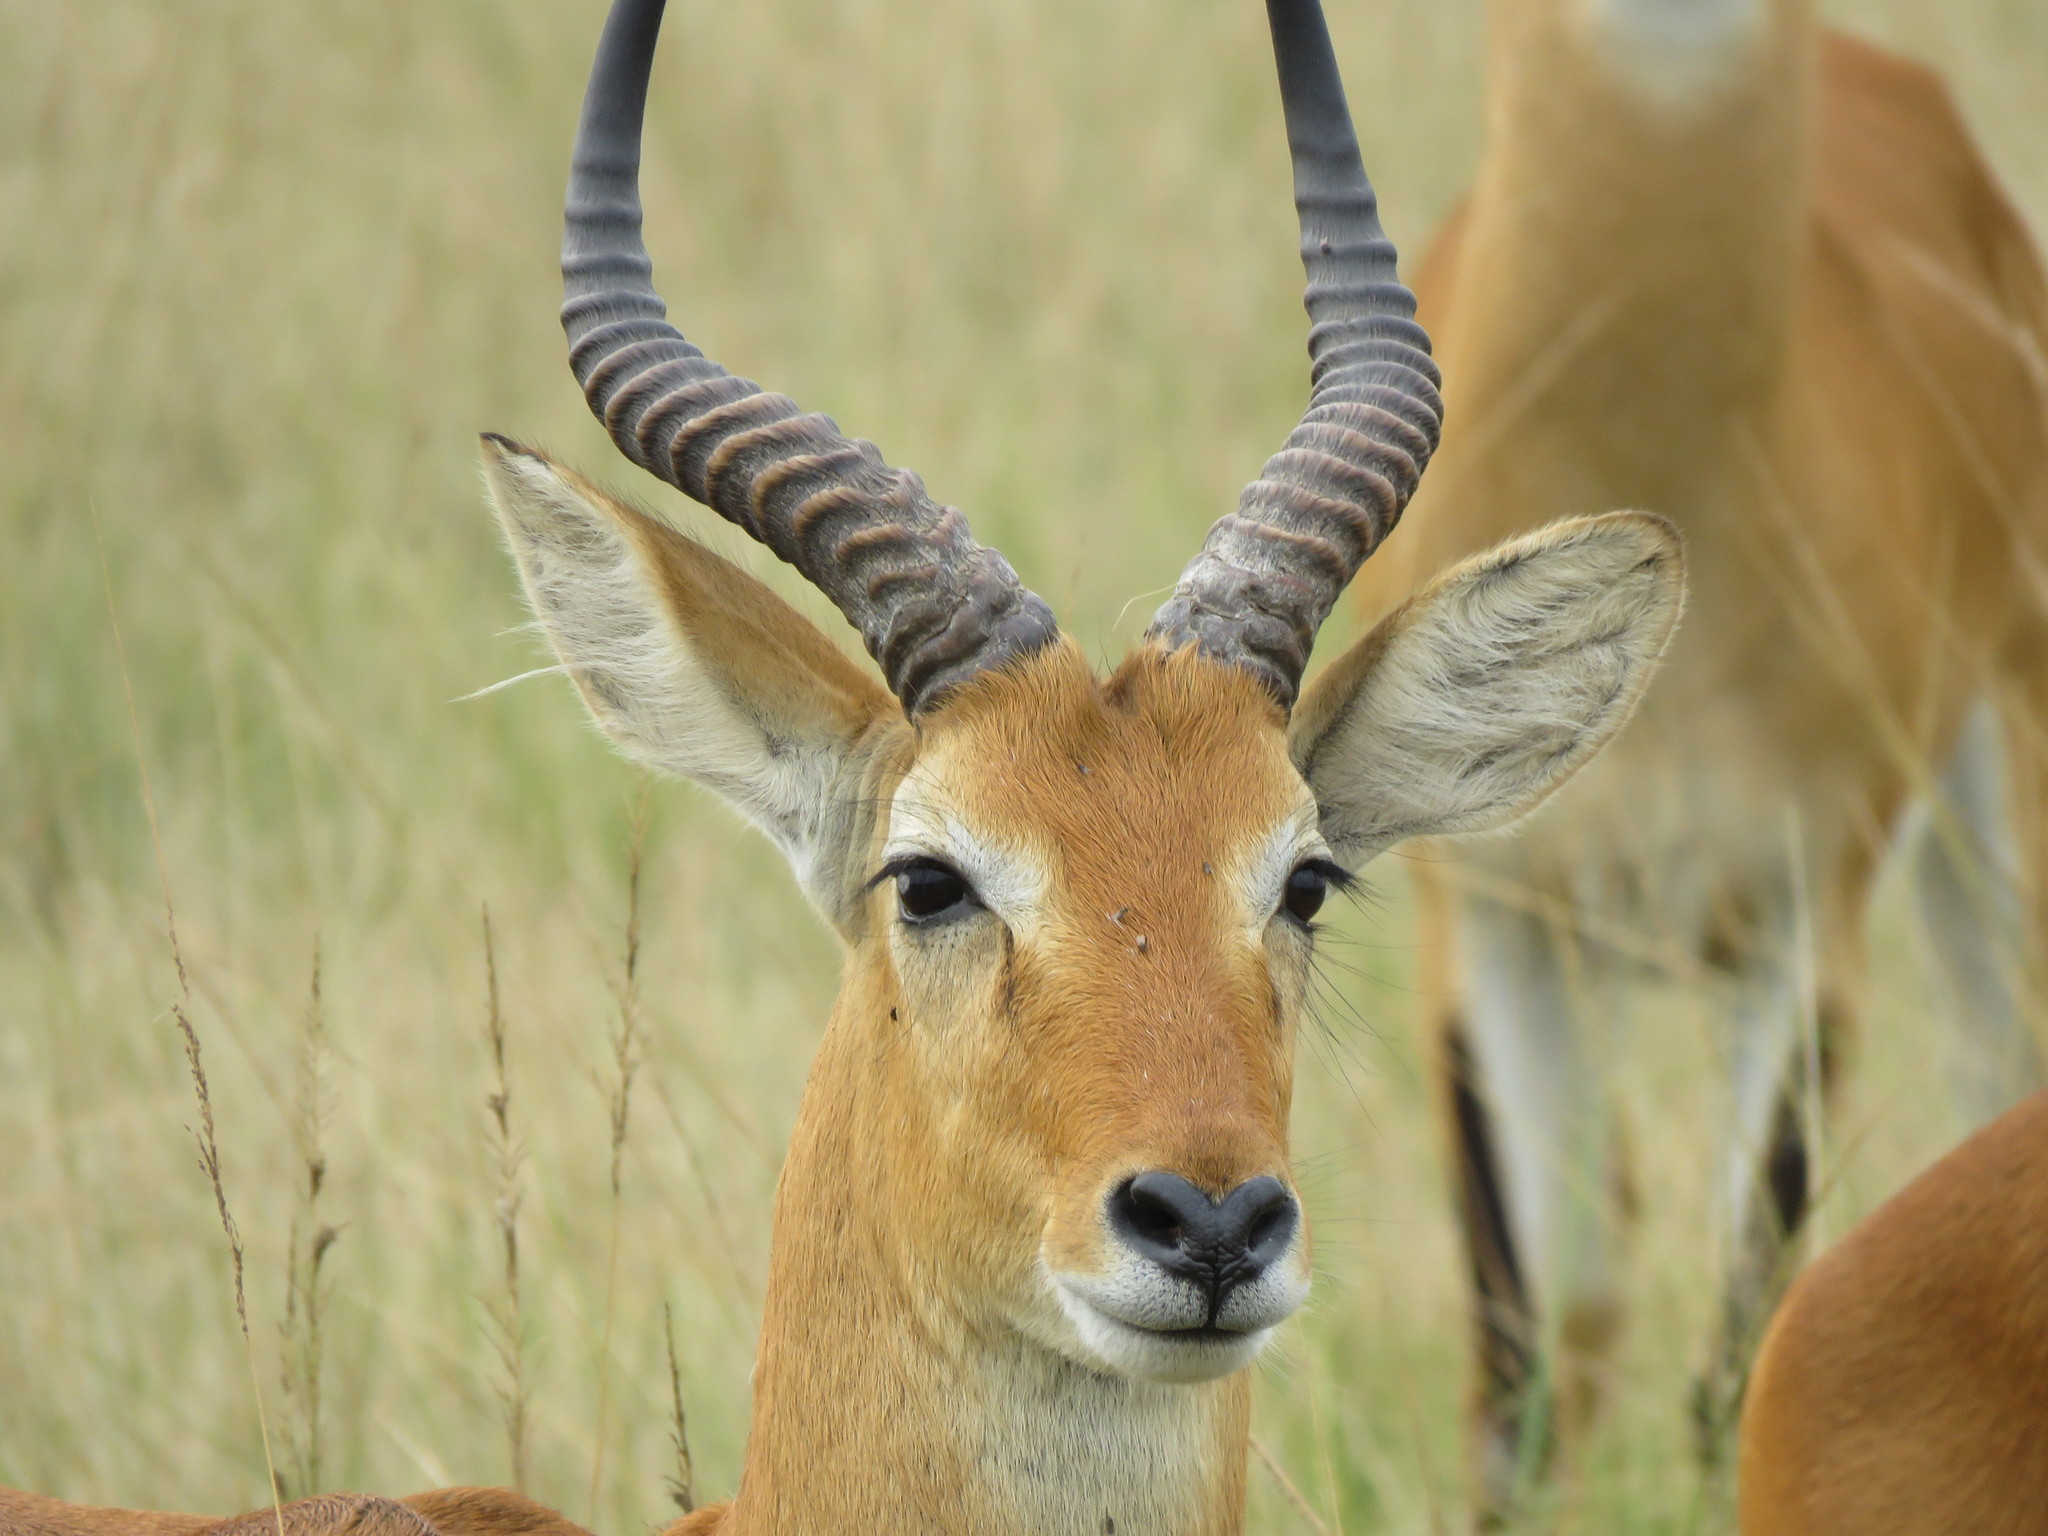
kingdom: Animalia
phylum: Chordata
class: Mammalia
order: Artiodactyla
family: Bovidae
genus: Kobus
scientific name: Kobus kob
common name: Kob
